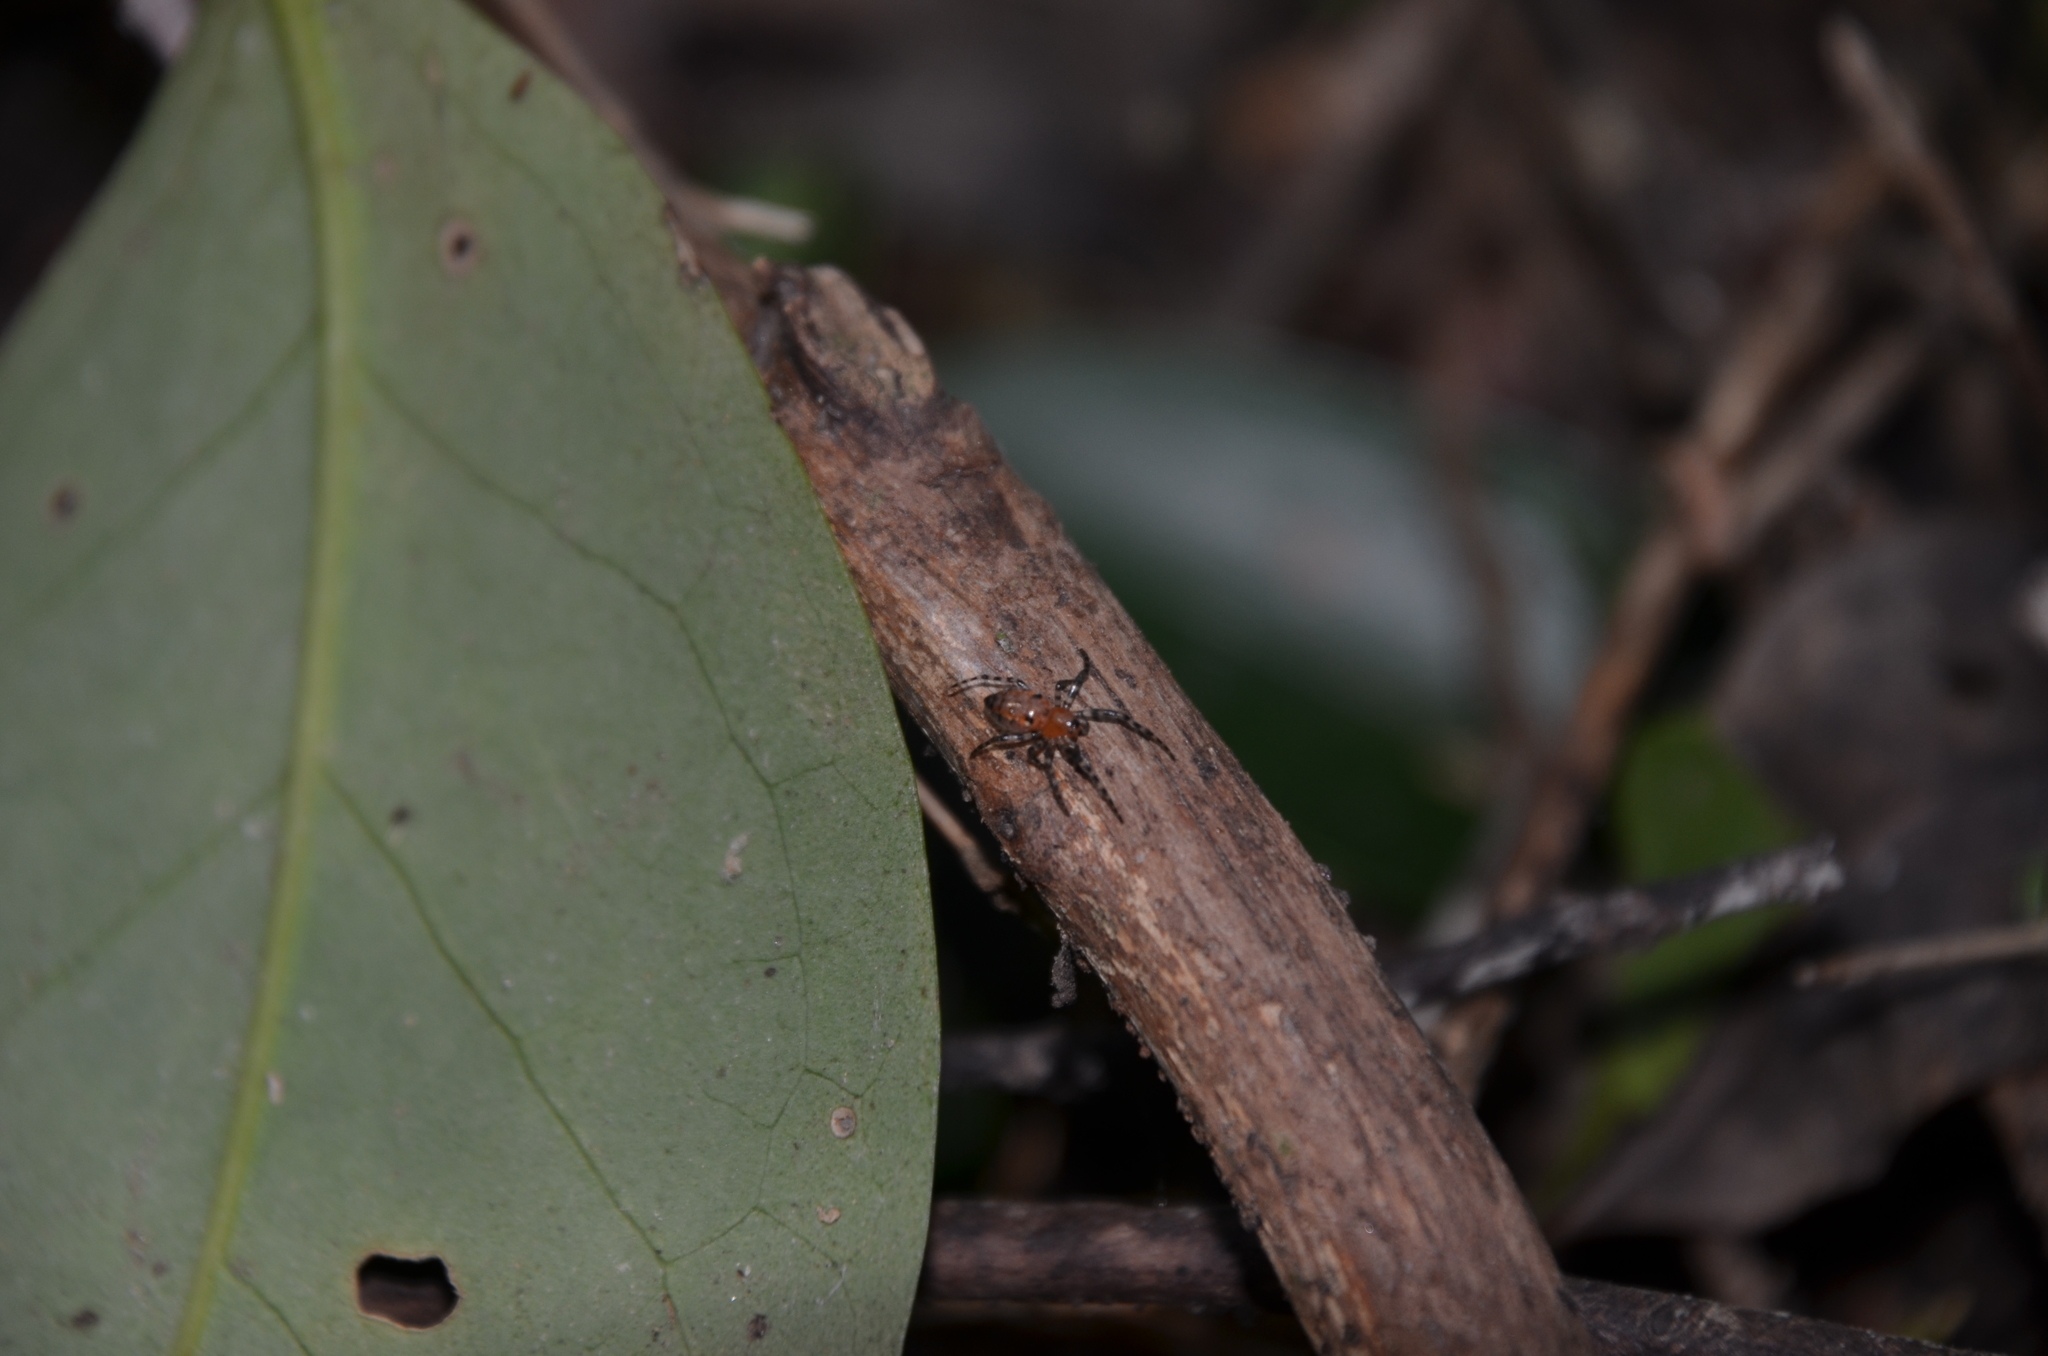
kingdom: Animalia
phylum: Arthropoda
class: Arachnida
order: Araneae
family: Araneidae
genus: Alpaida
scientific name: Alpaida gallardoi
